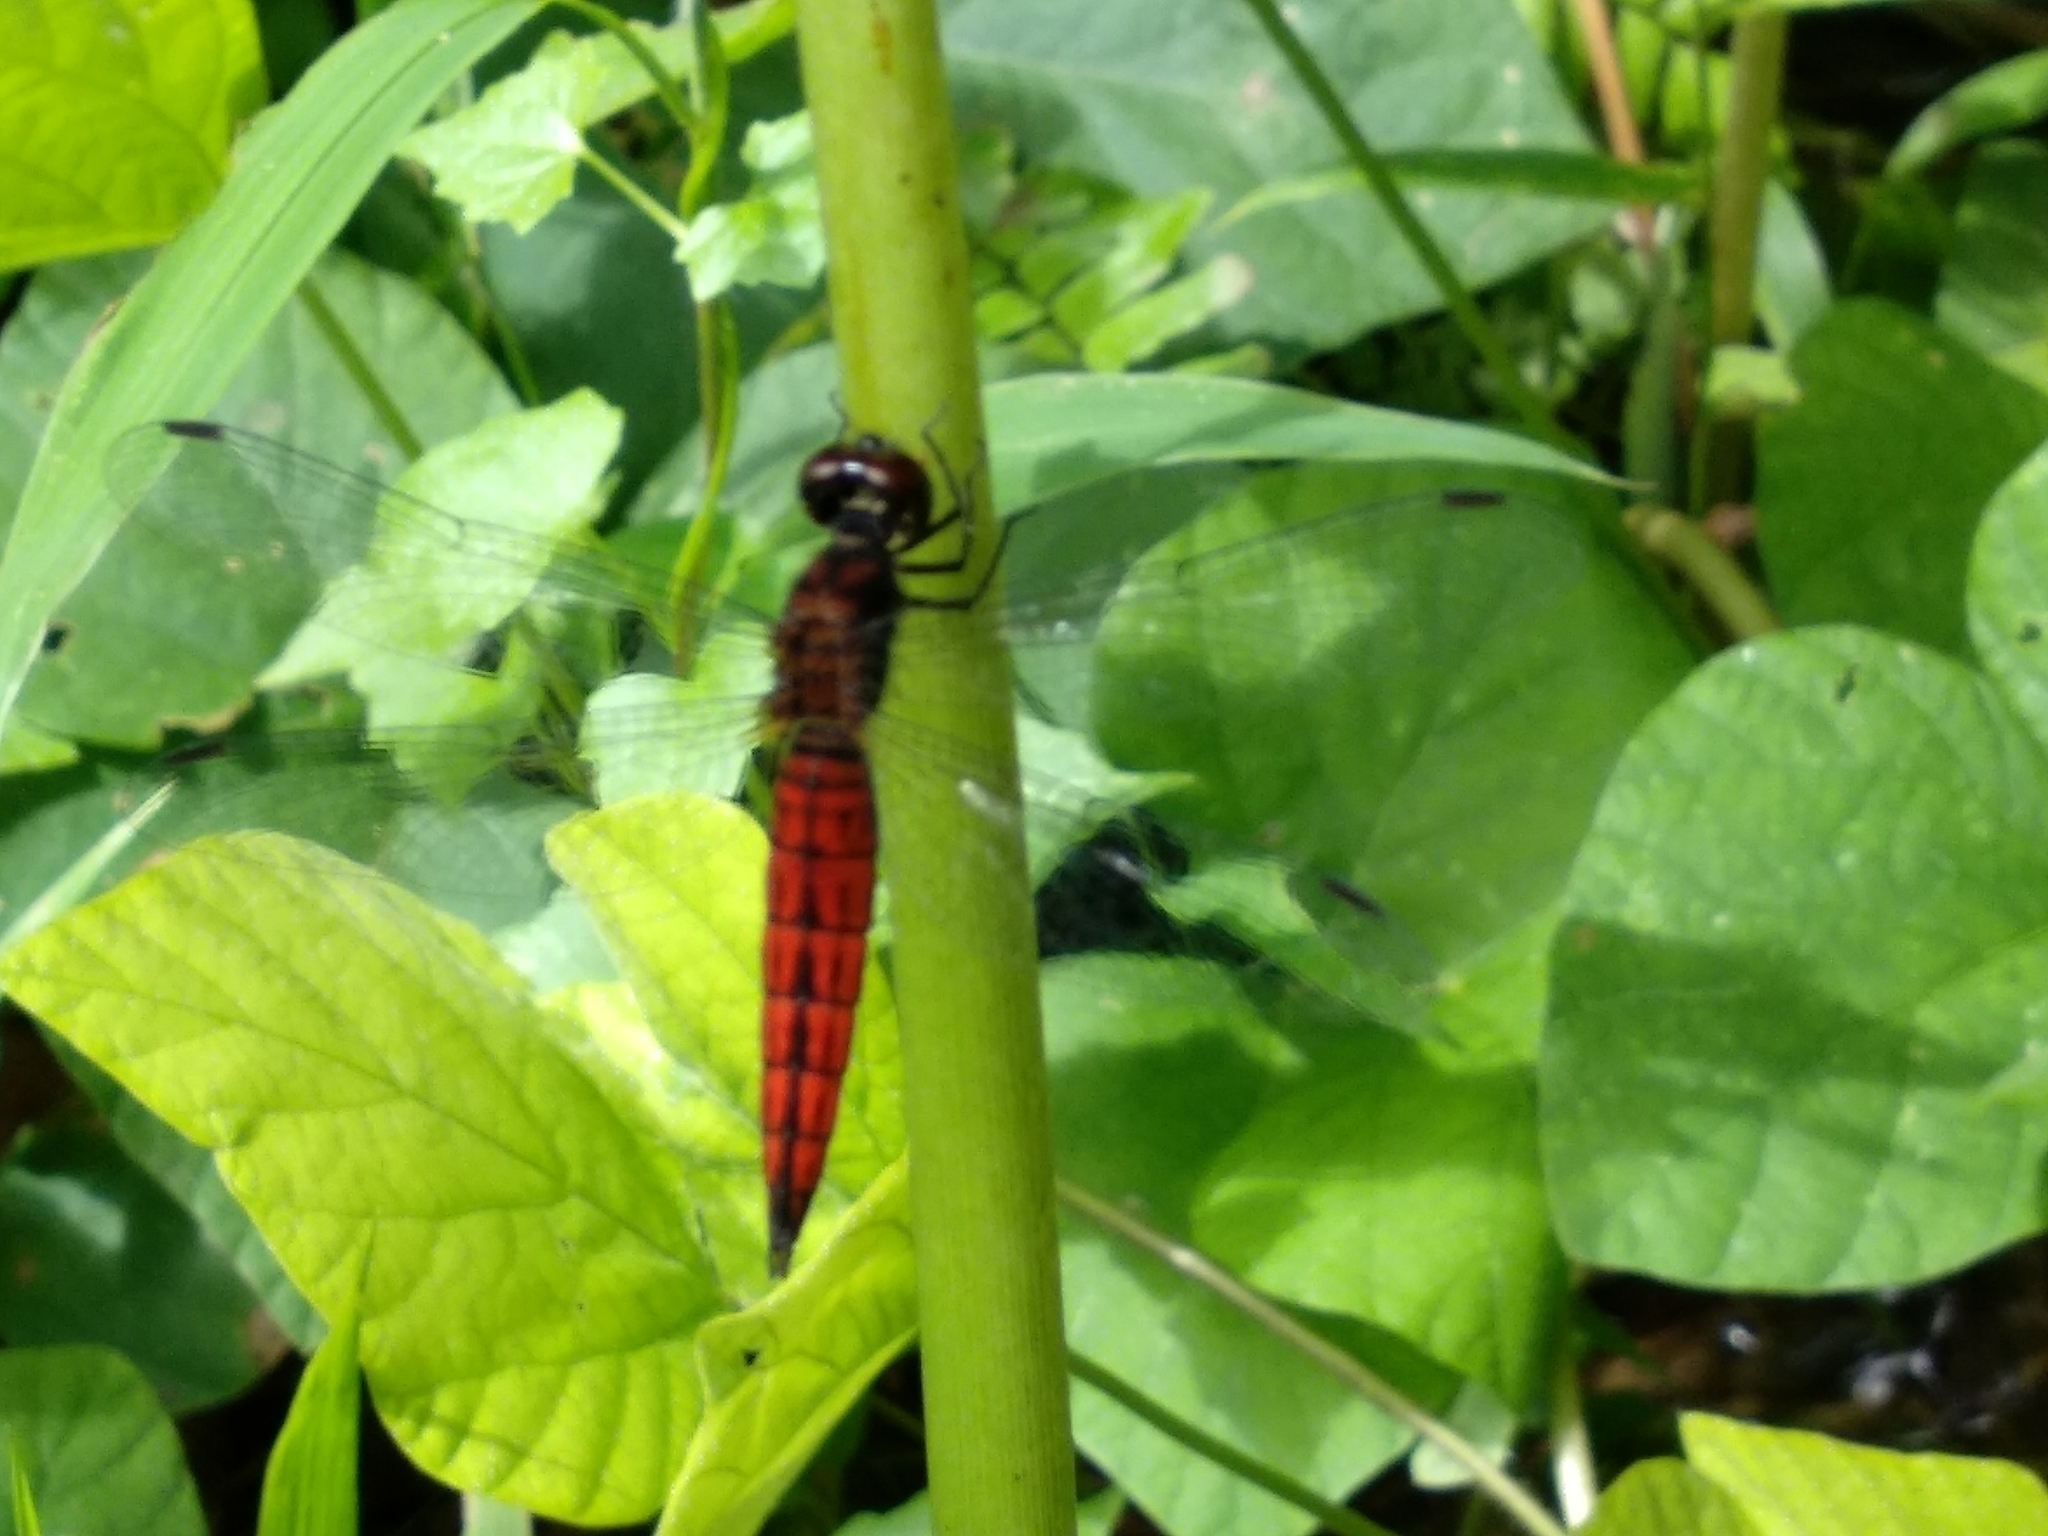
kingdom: Animalia
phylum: Arthropoda
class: Insecta
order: Odonata
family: Libellulidae
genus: Lyriothemis
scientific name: Lyriothemis acigastra
